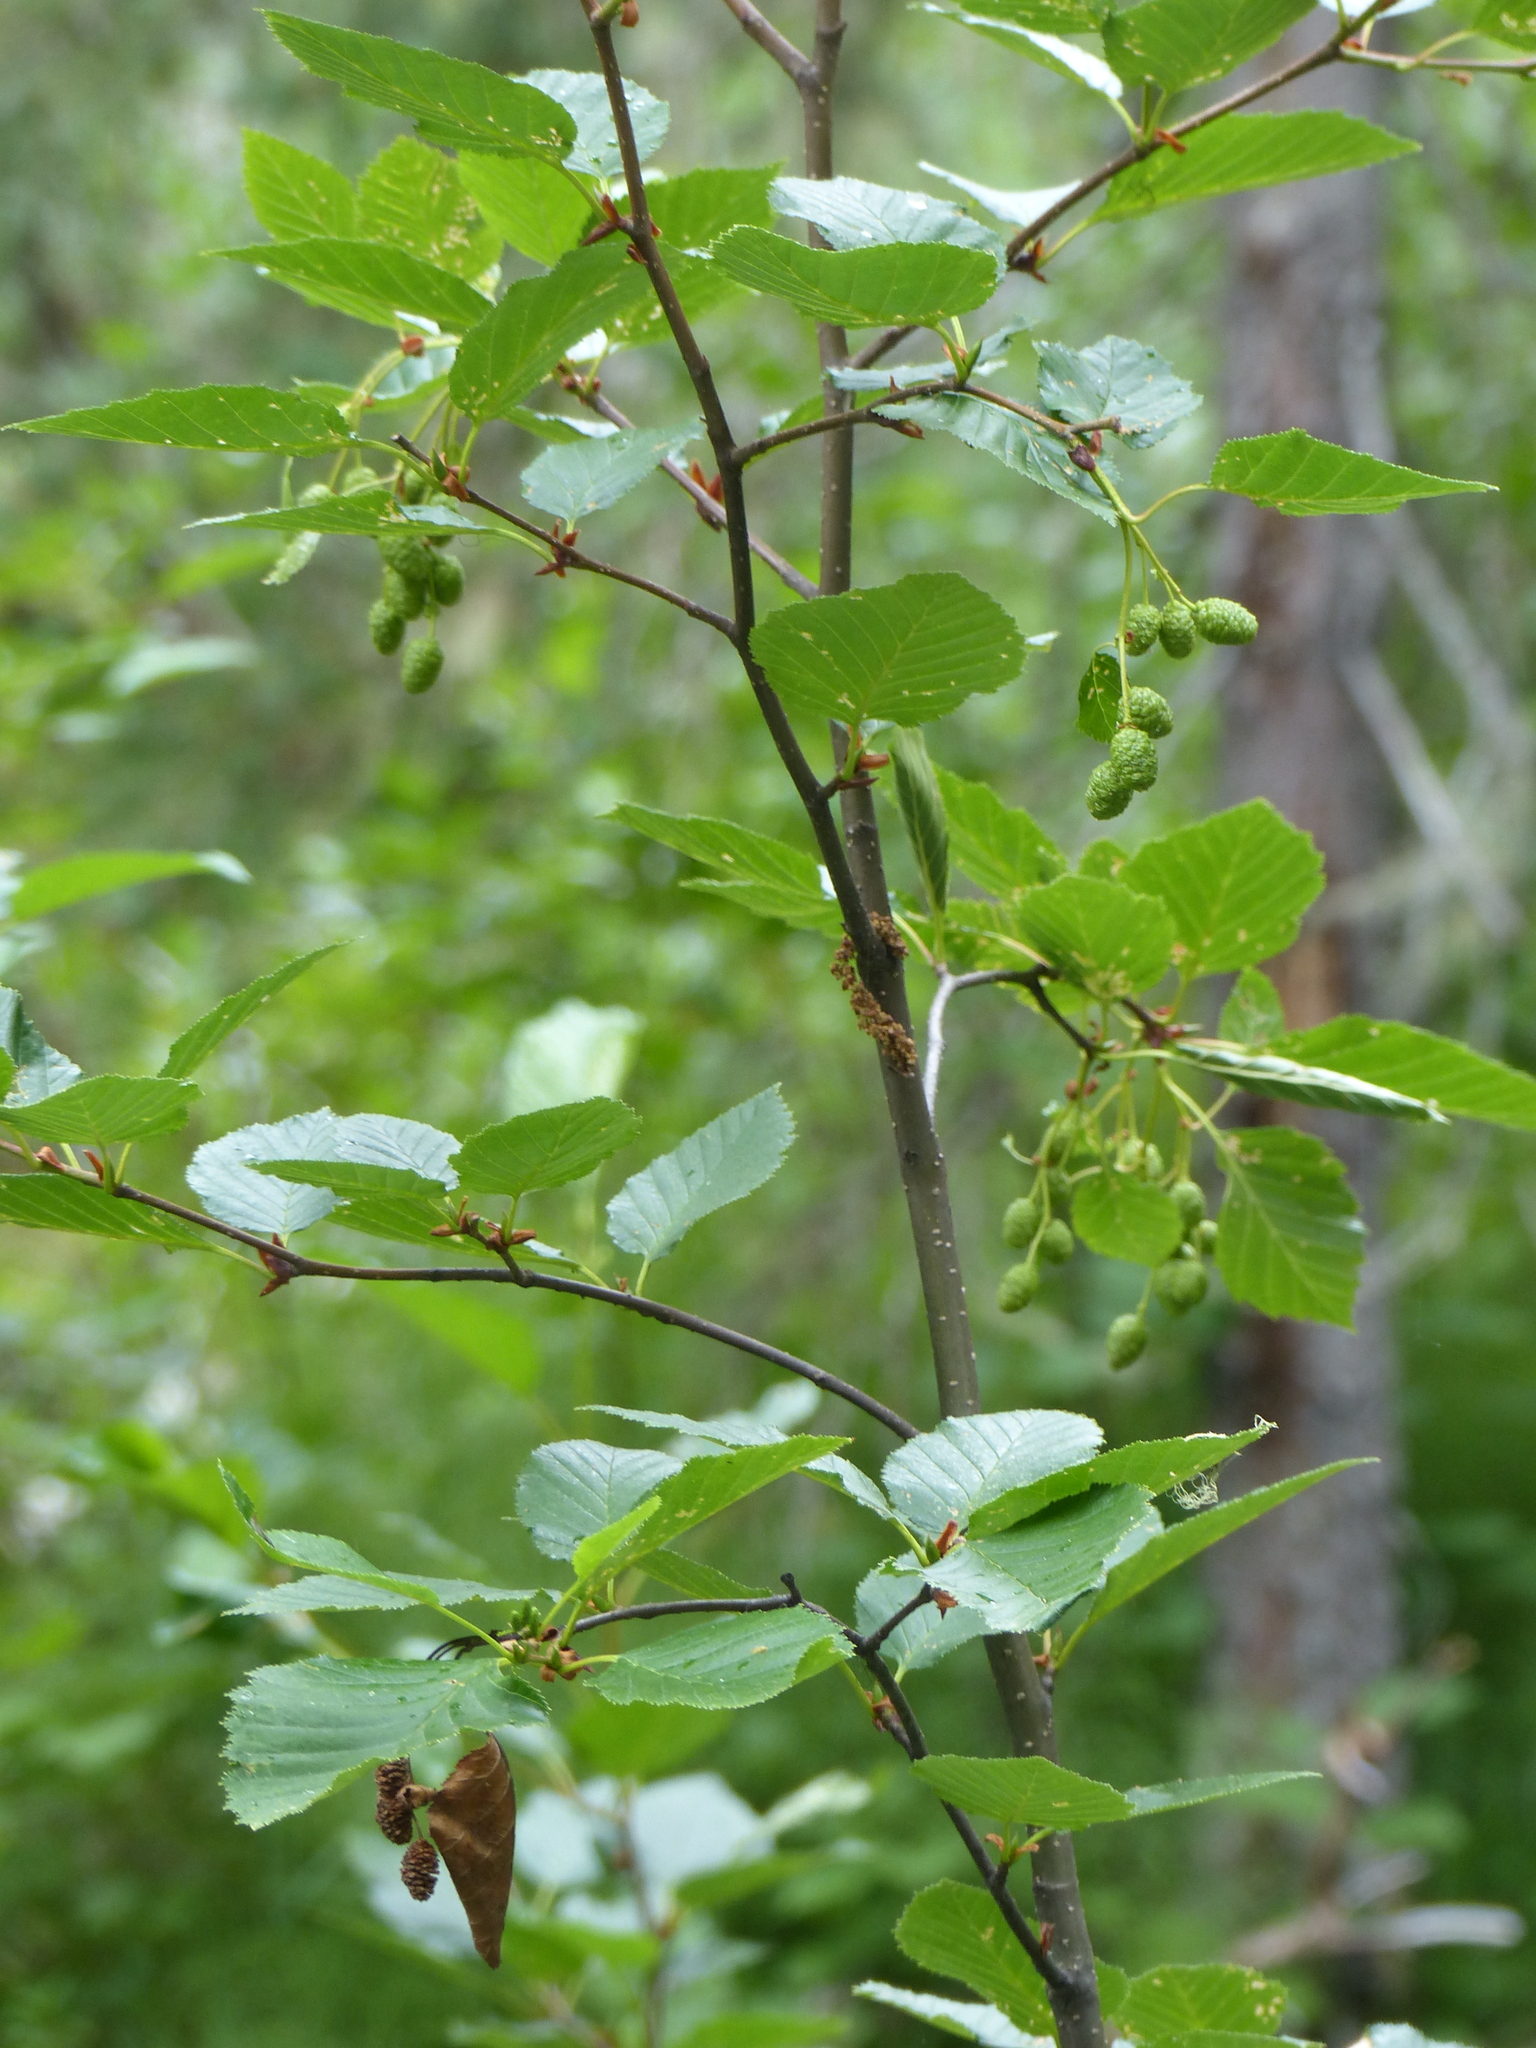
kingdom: Plantae
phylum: Tracheophyta
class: Magnoliopsida
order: Fagales
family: Betulaceae
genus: Alnus
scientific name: Alnus alnobetula
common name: Green alder
